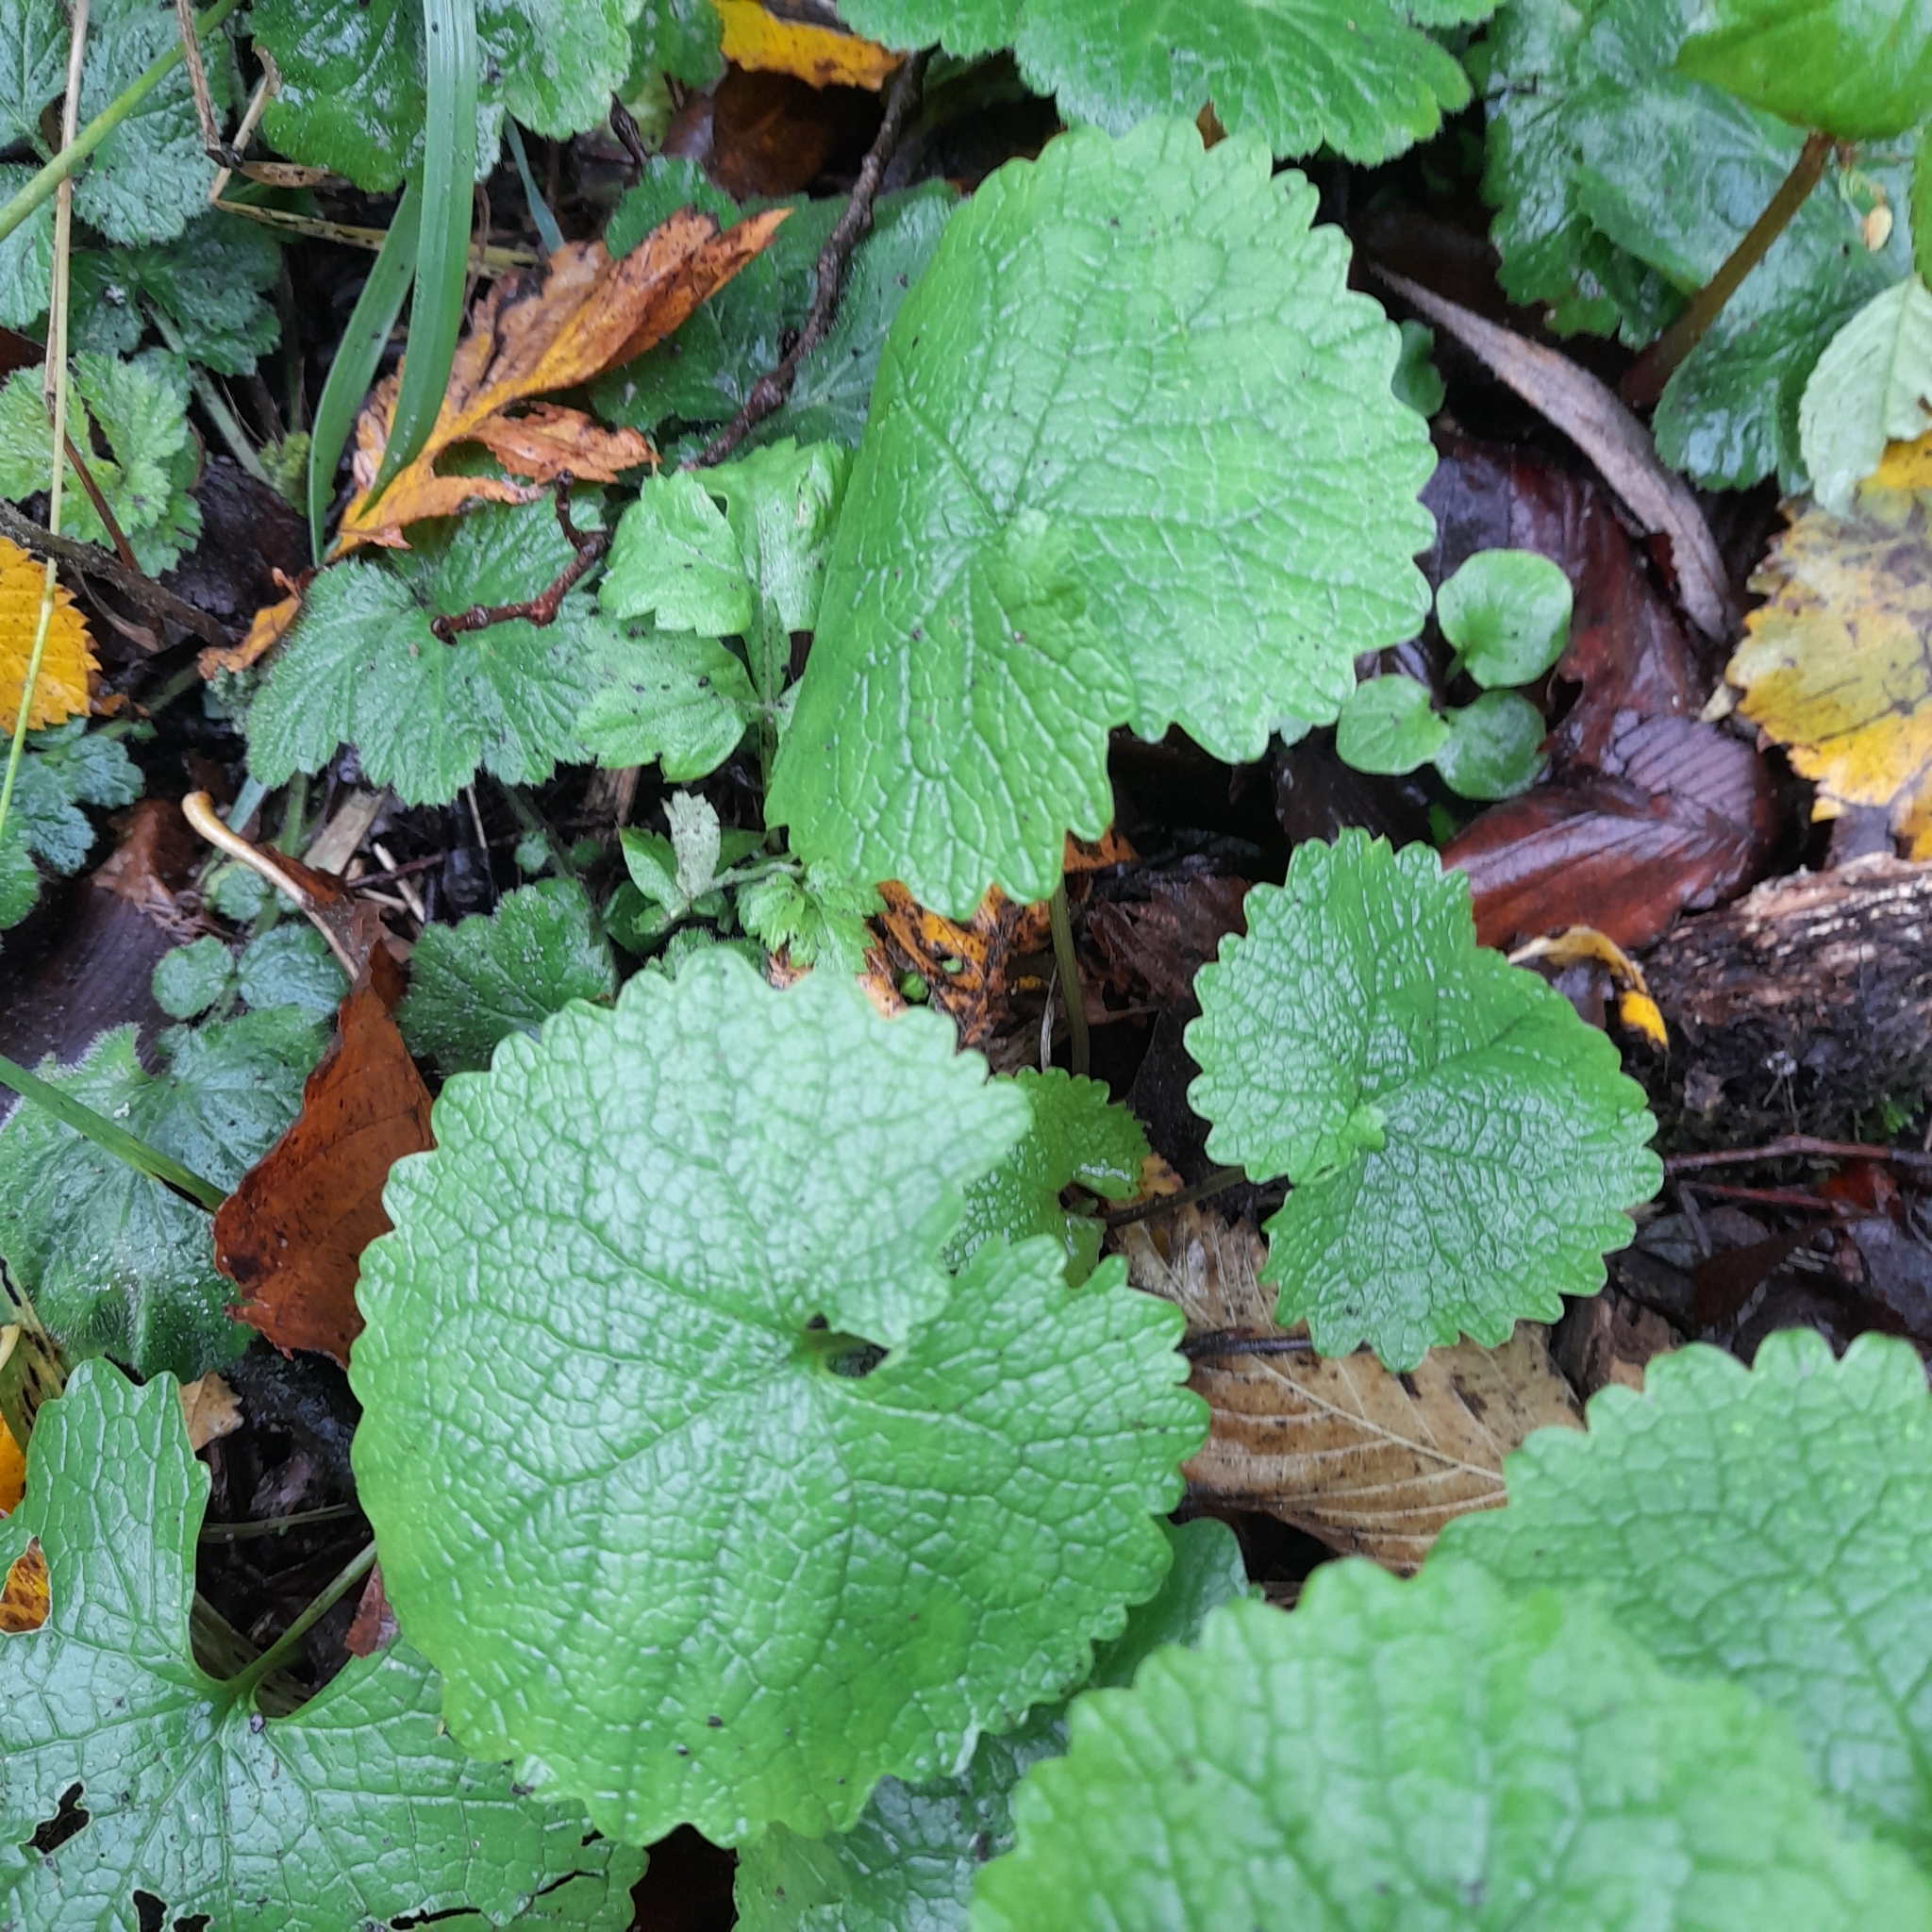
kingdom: Plantae
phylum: Tracheophyta
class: Magnoliopsida
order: Brassicales
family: Brassicaceae
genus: Alliaria
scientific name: Alliaria petiolata
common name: Garlic mustard
